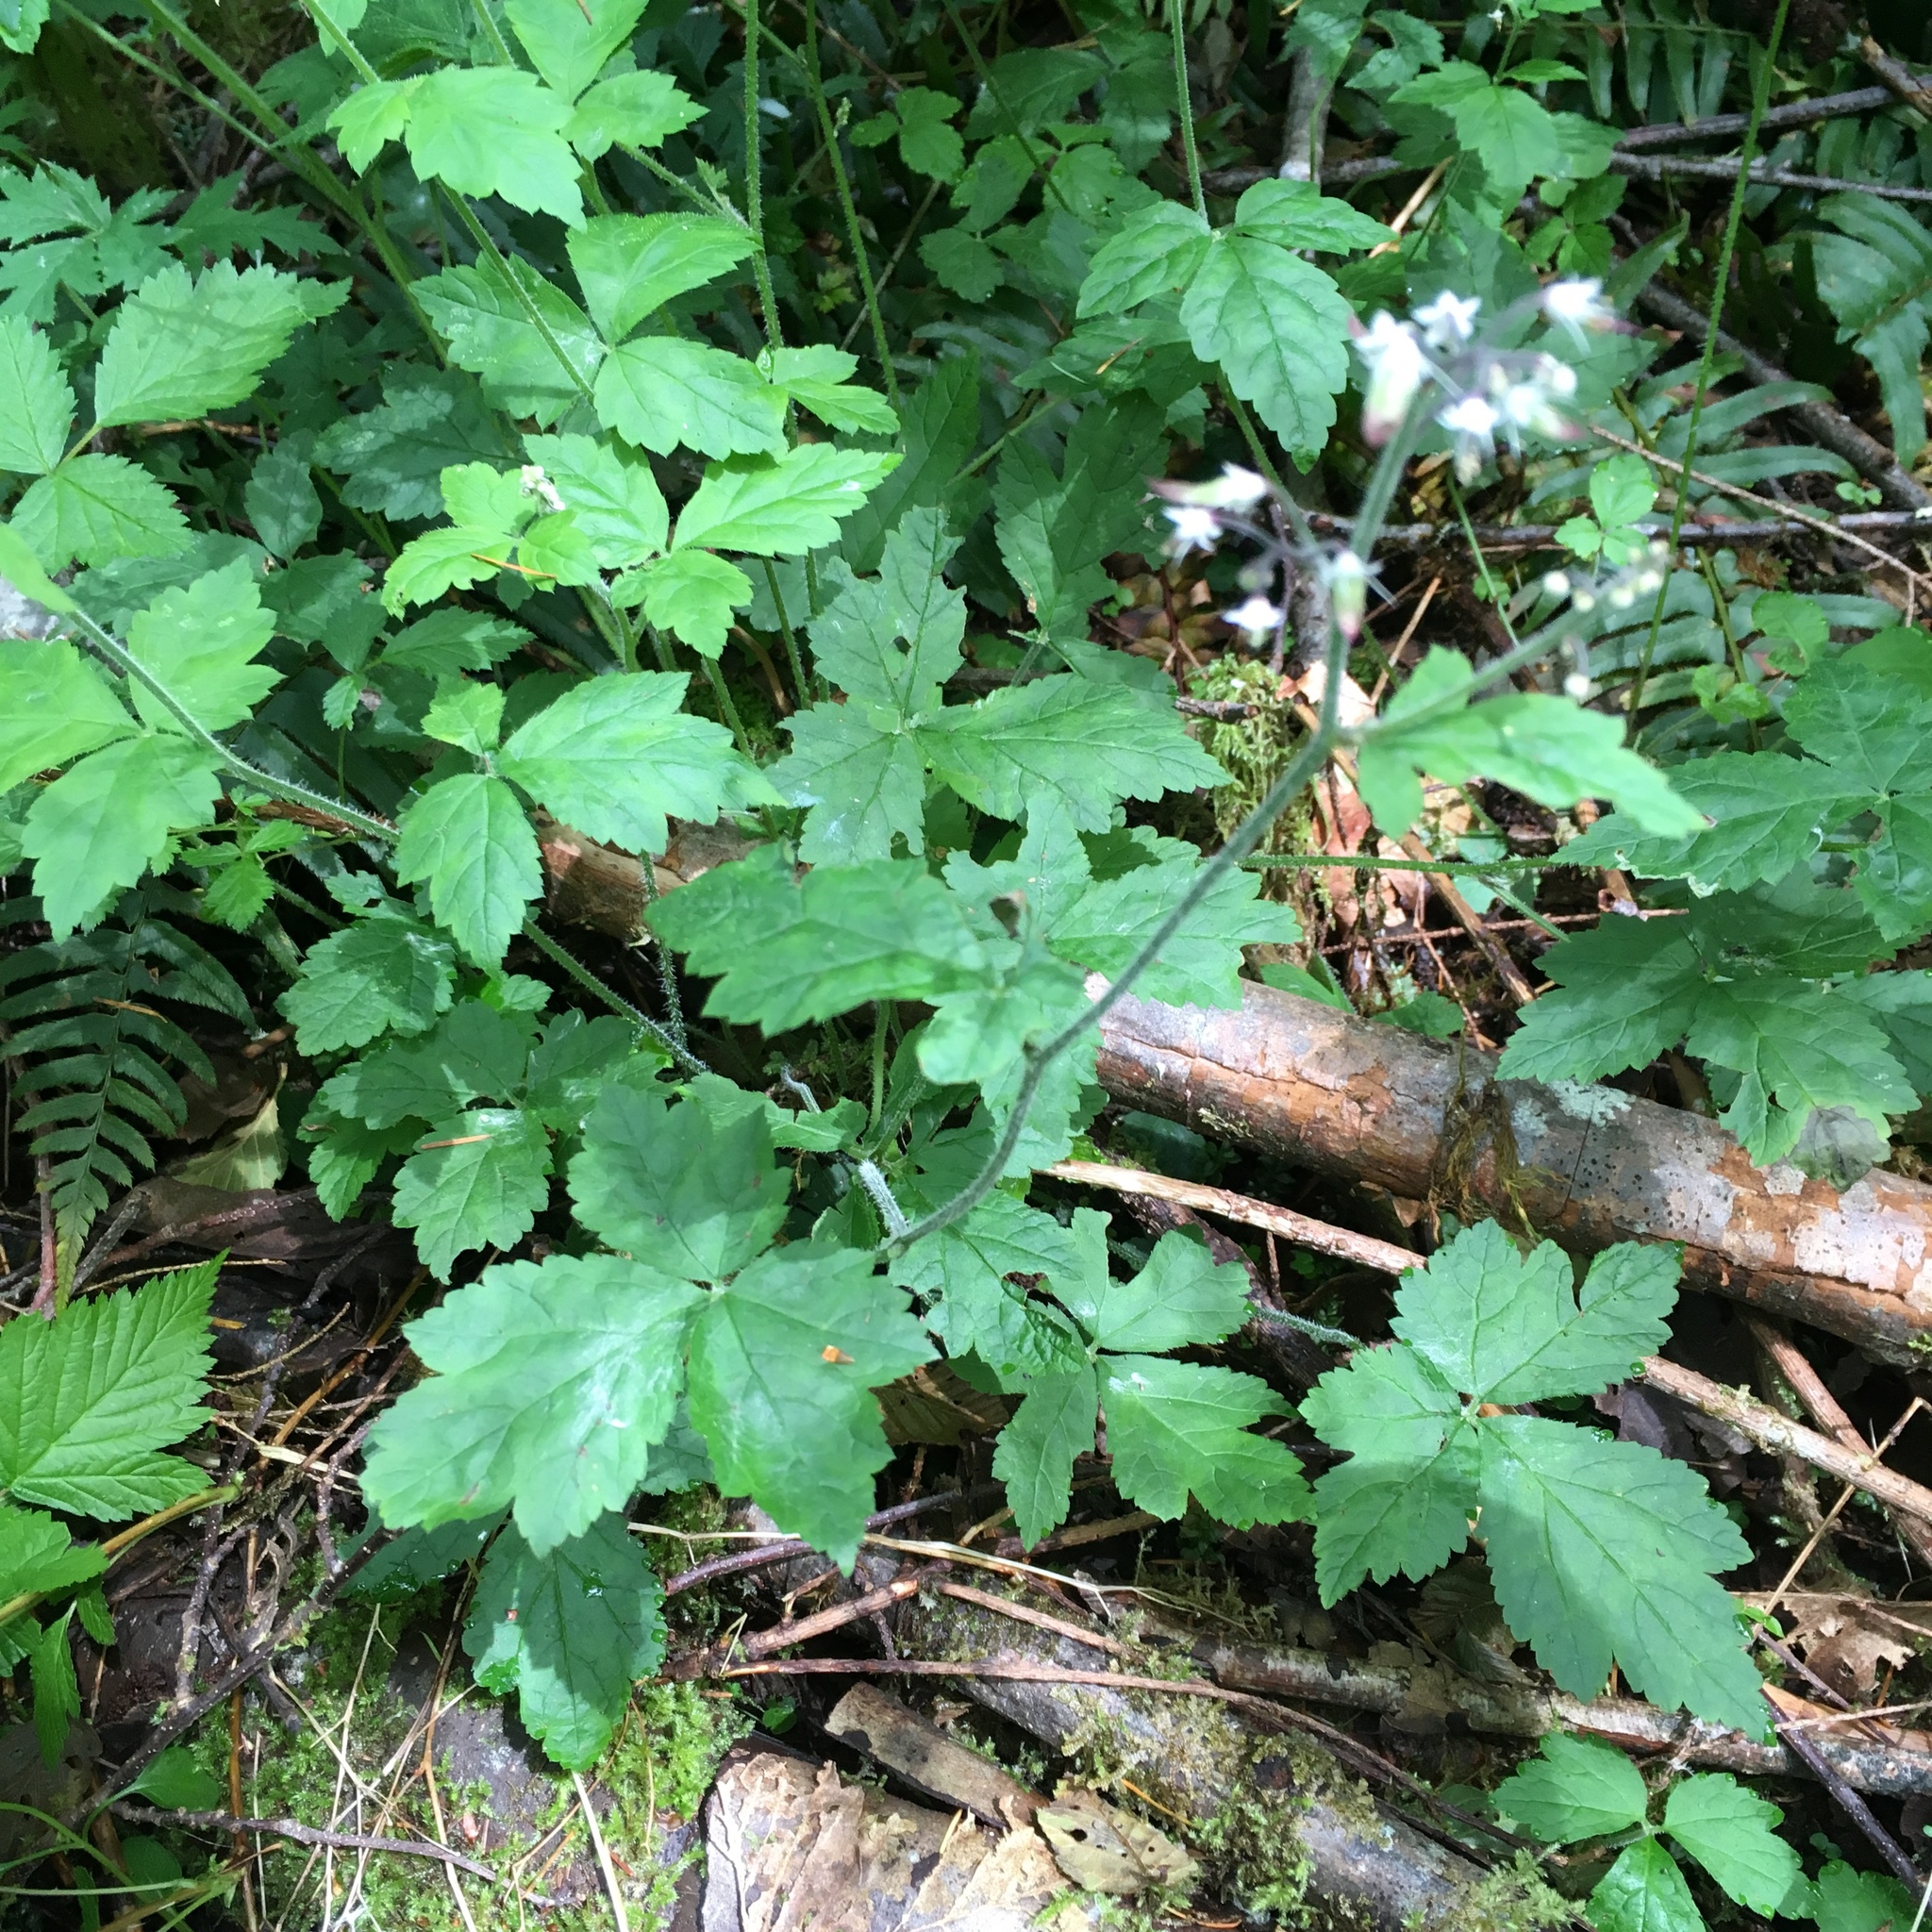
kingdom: Plantae
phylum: Tracheophyta
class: Magnoliopsida
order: Saxifragales
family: Saxifragaceae
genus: Tiarella
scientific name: Tiarella trifoliata
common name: Sugar-scoop
